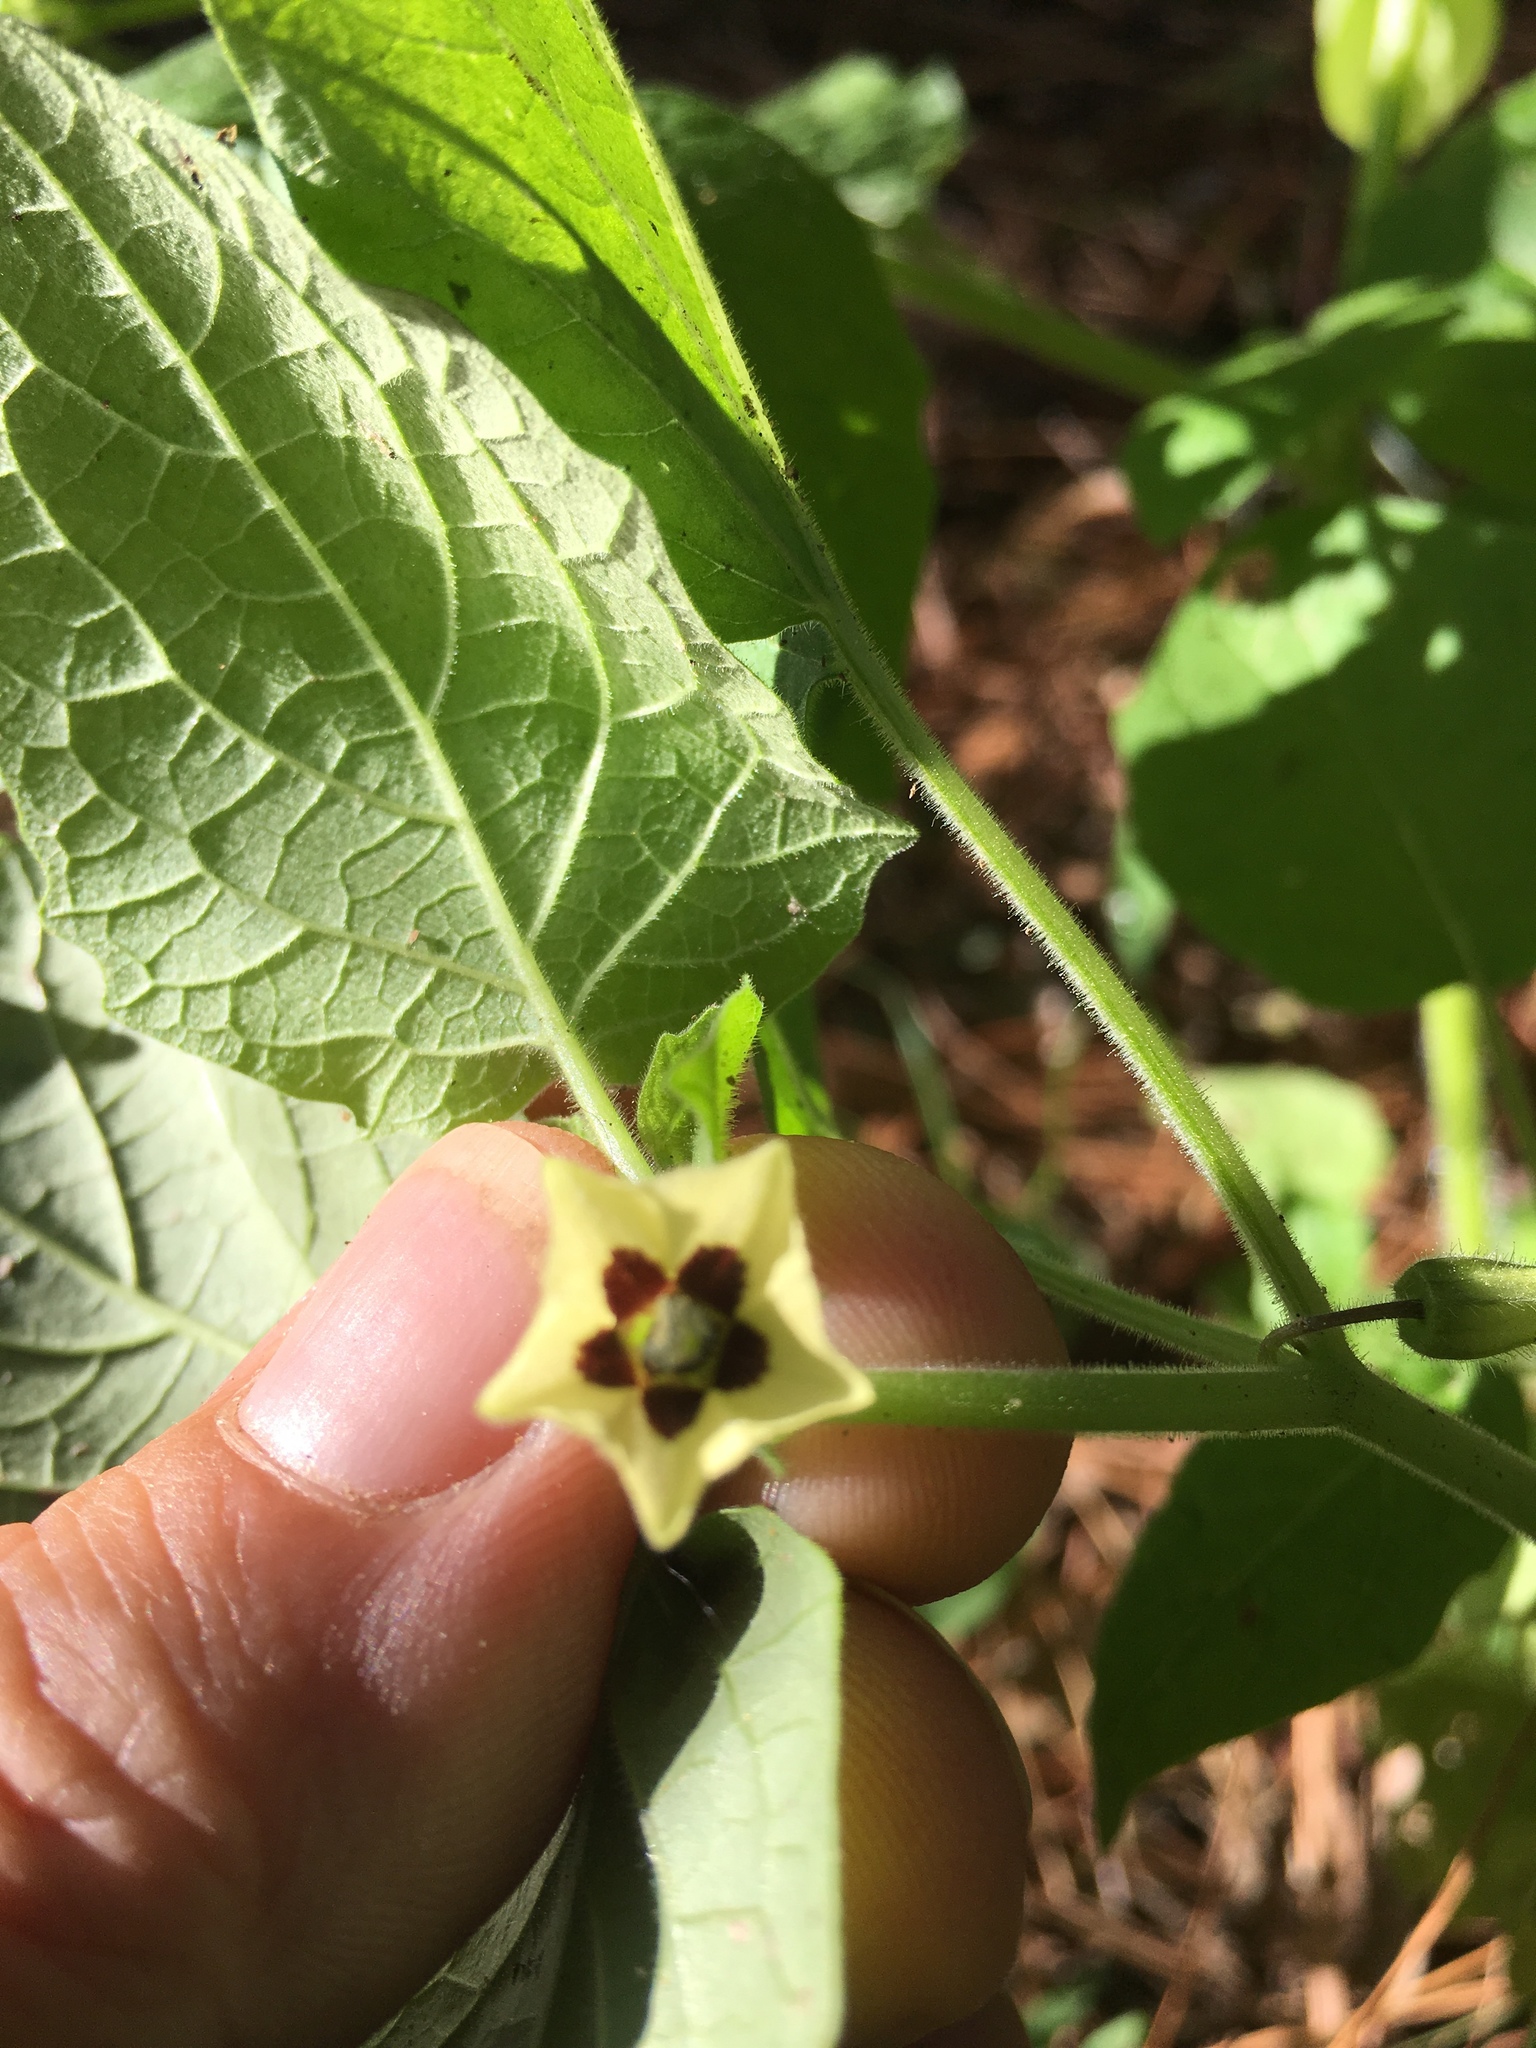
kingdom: Plantae
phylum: Tracheophyta
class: Magnoliopsida
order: Solanales
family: Solanaceae
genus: Physalis
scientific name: Physalis heterophylla
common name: Clammy ground-cherry
